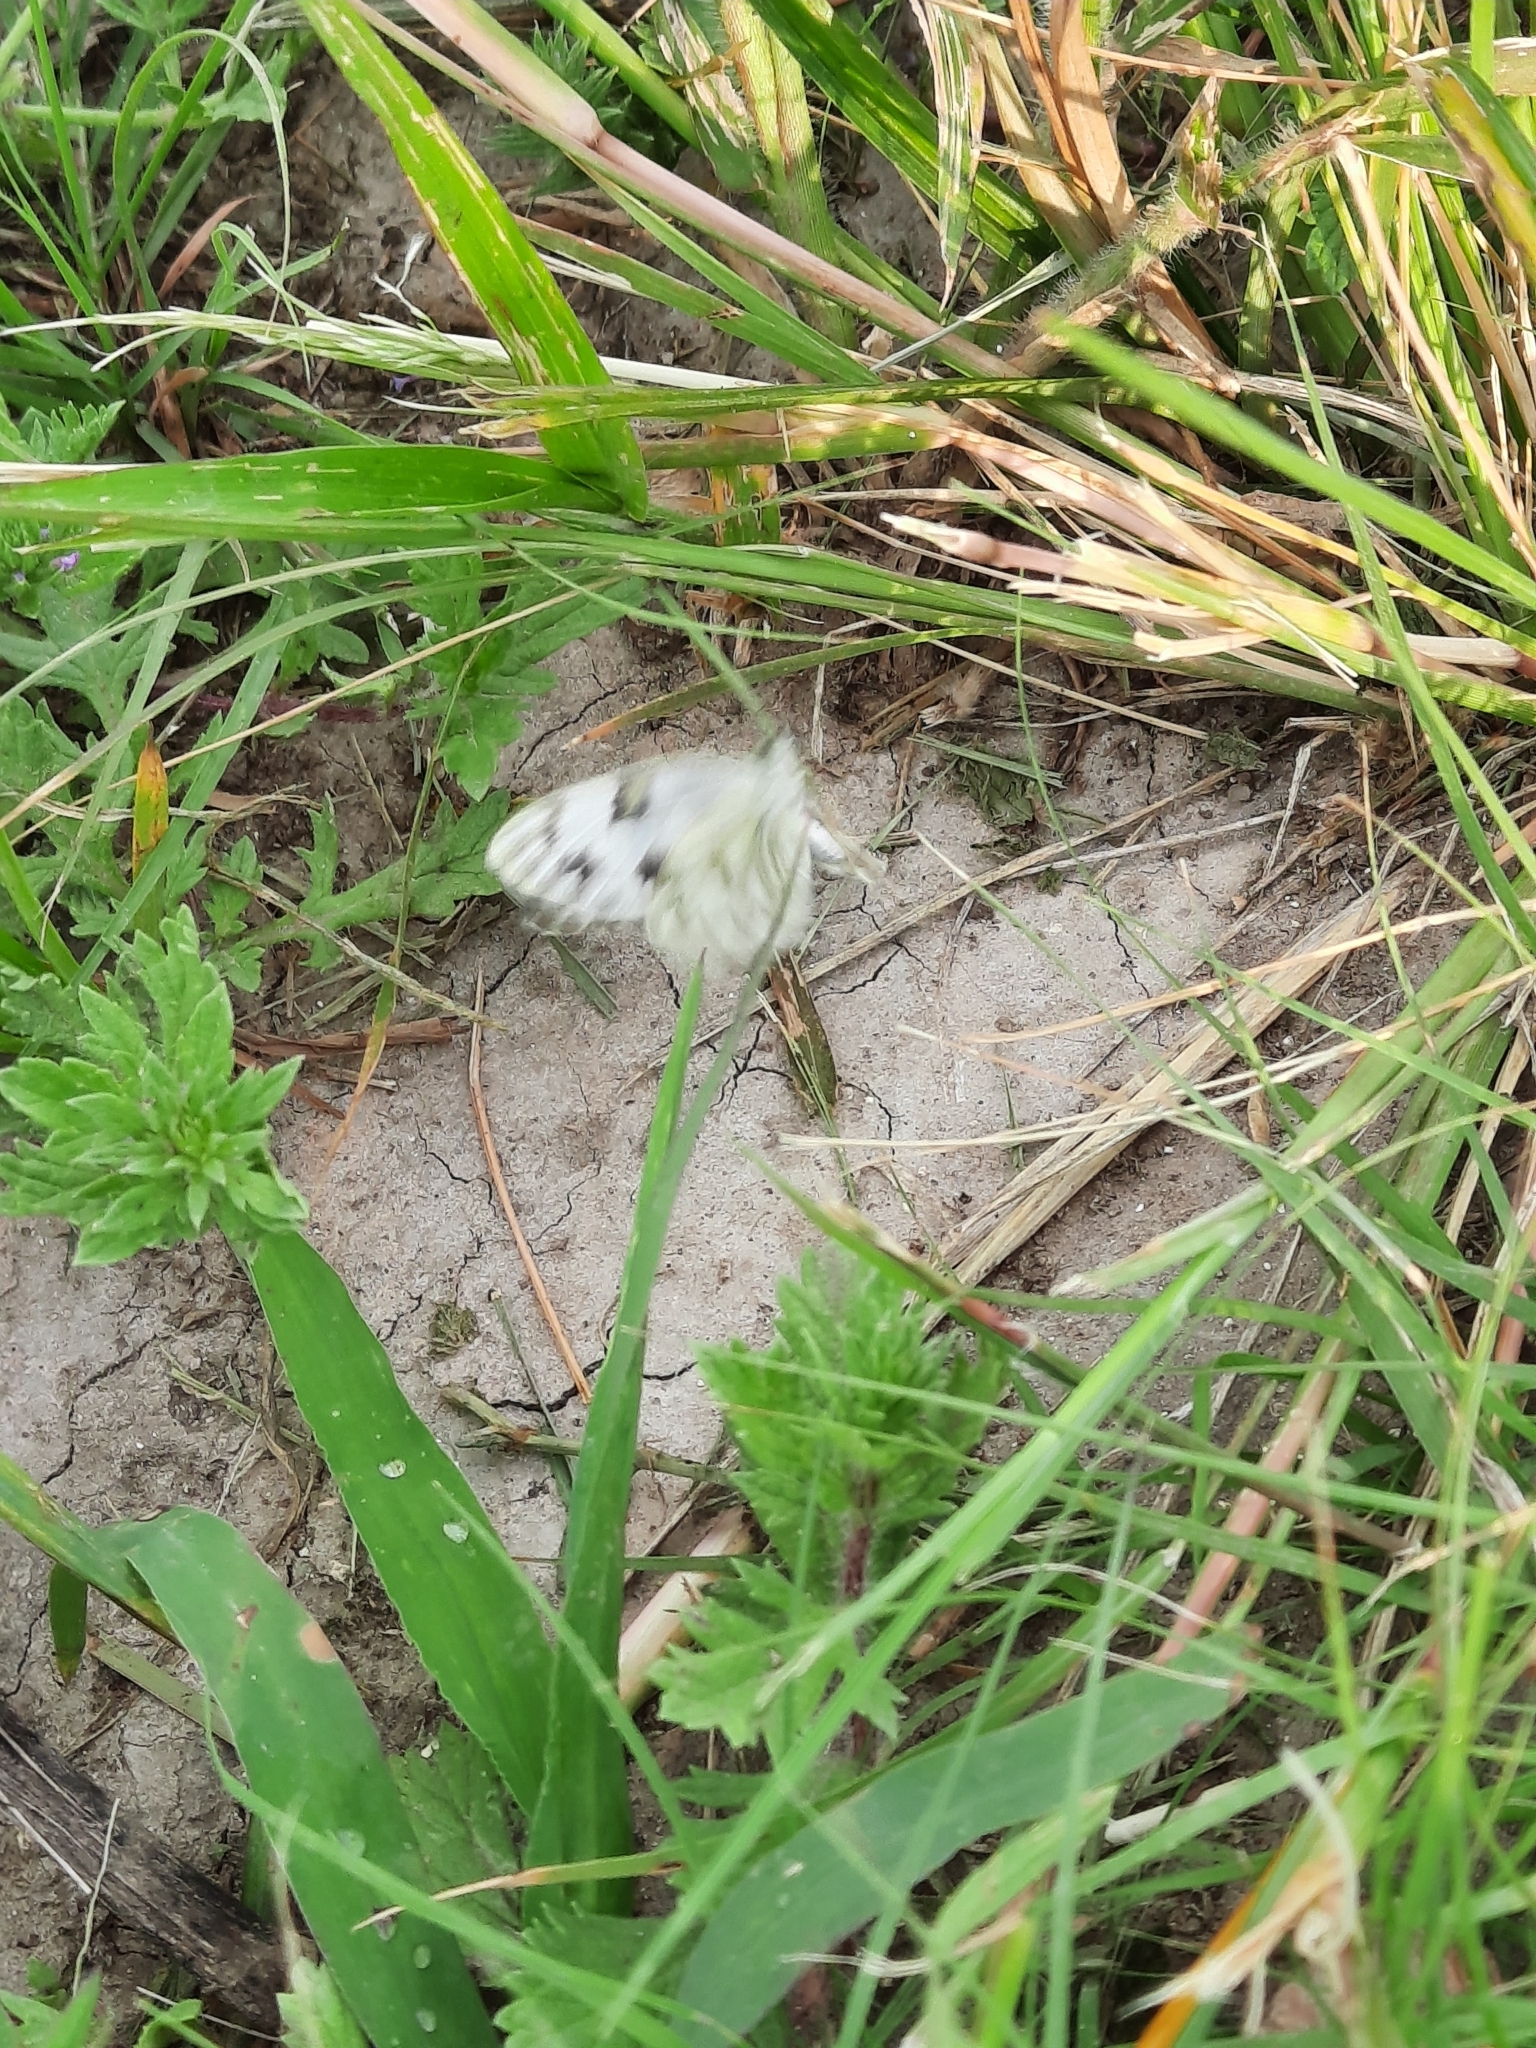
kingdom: Animalia
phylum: Arthropoda
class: Insecta
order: Lepidoptera
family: Pieridae
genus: Pontia
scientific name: Pontia protodice
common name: Checkered white
